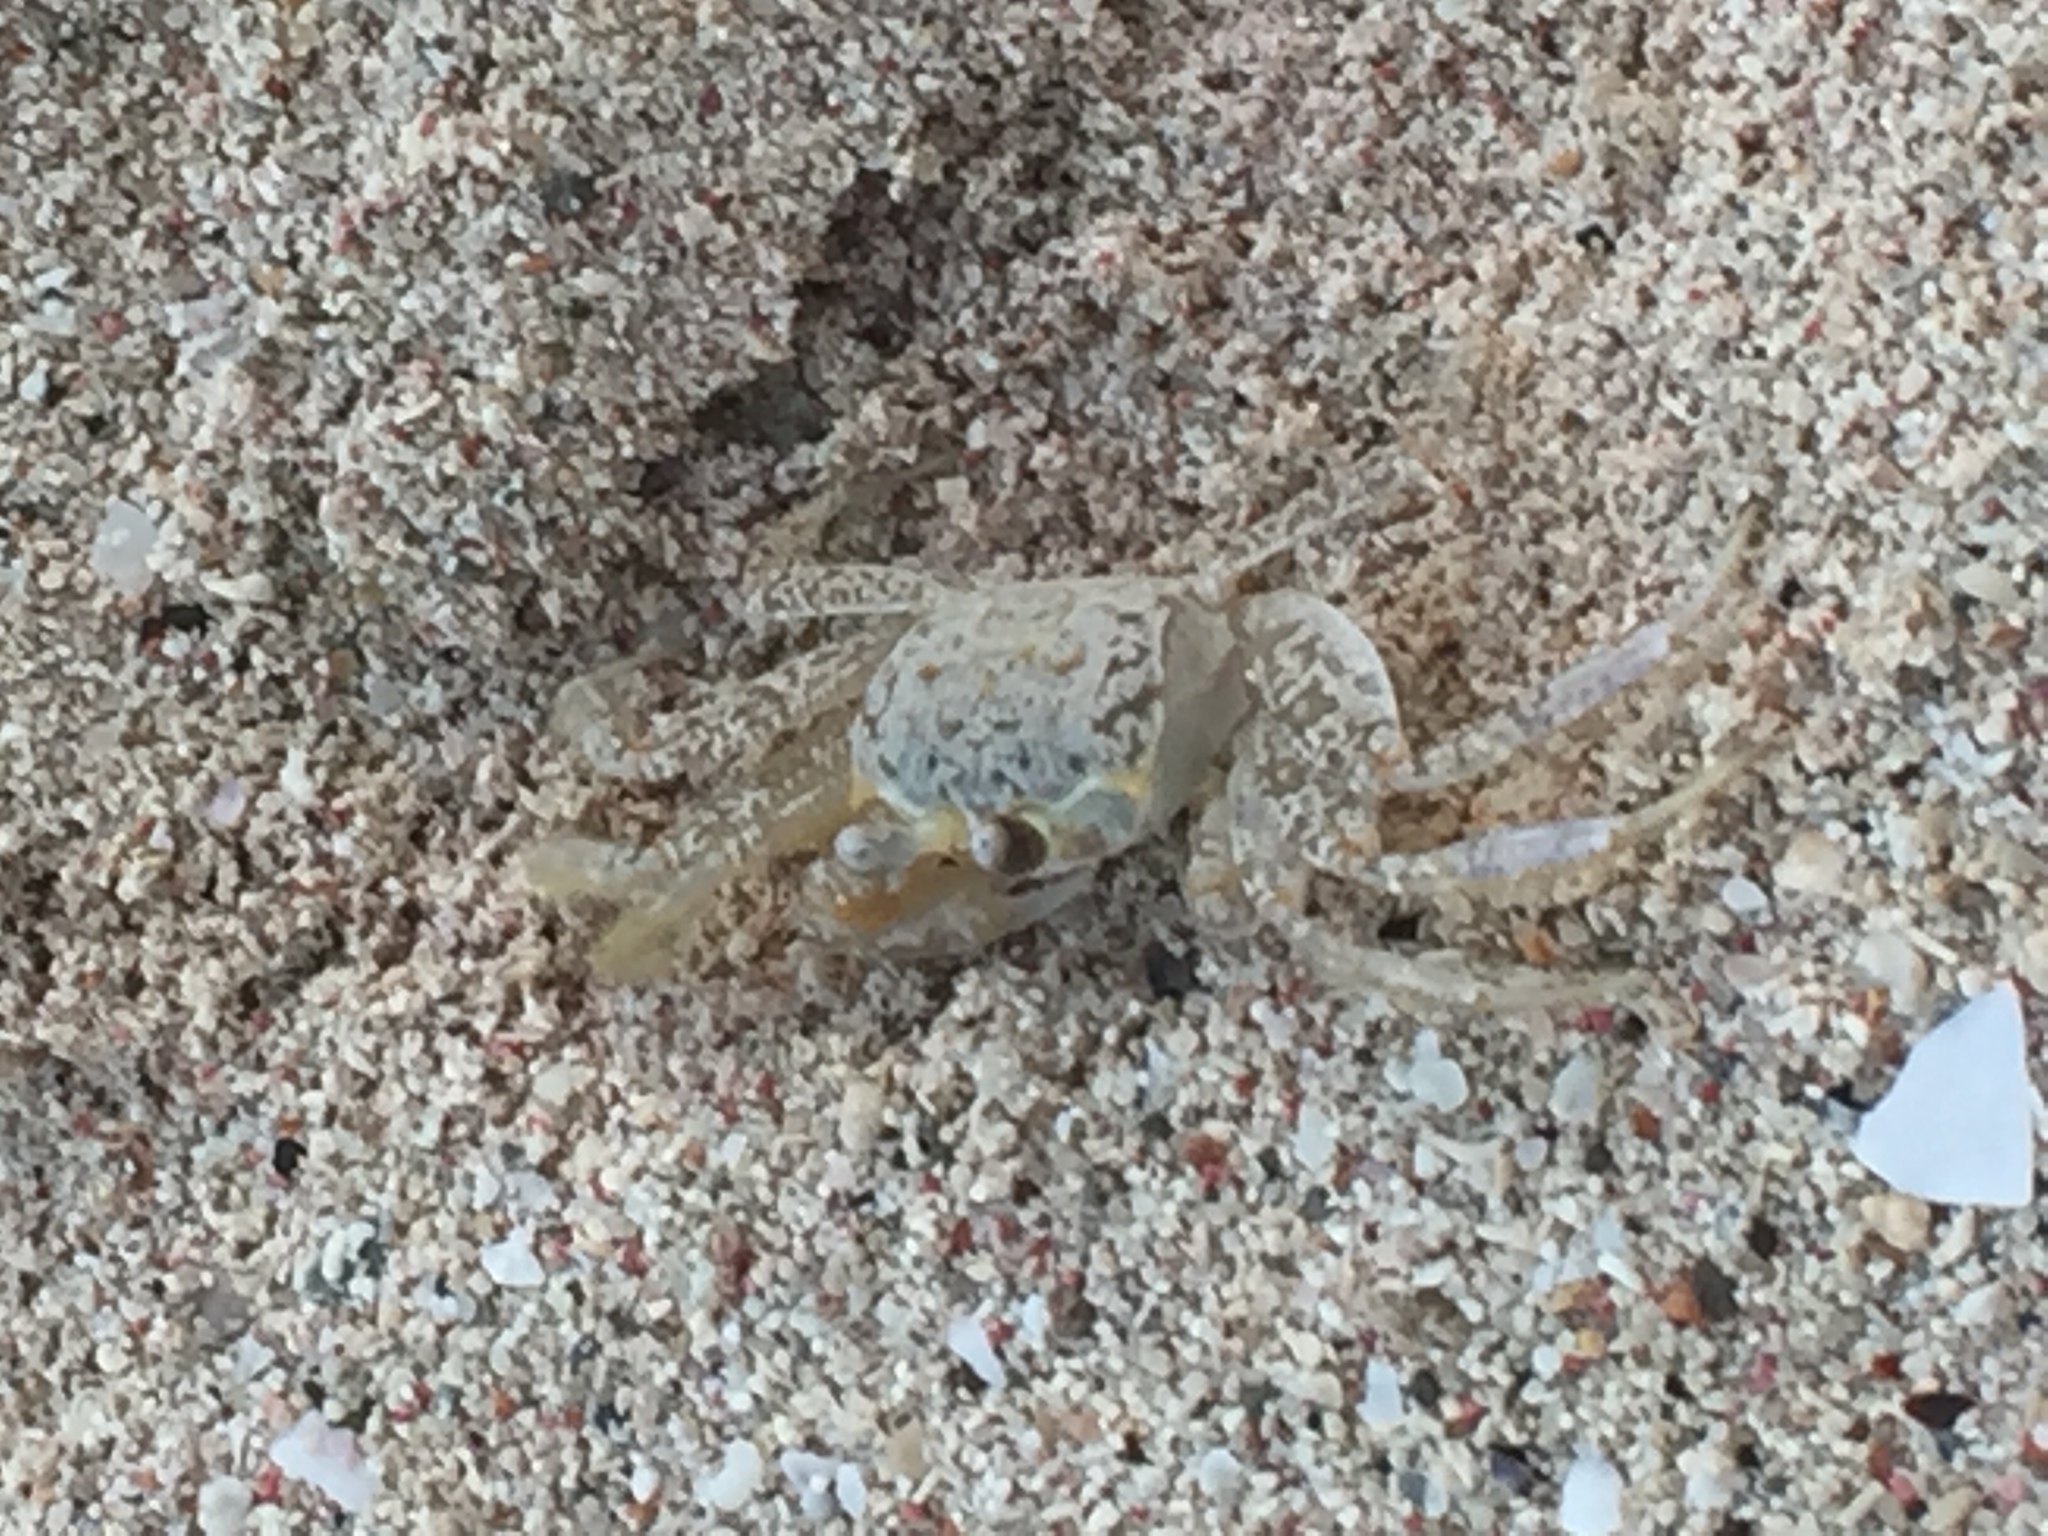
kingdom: Animalia
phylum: Arthropoda
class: Malacostraca
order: Decapoda
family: Ocypodidae
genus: Ocypode
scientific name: Ocypode quadrata
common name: Ghost crab
